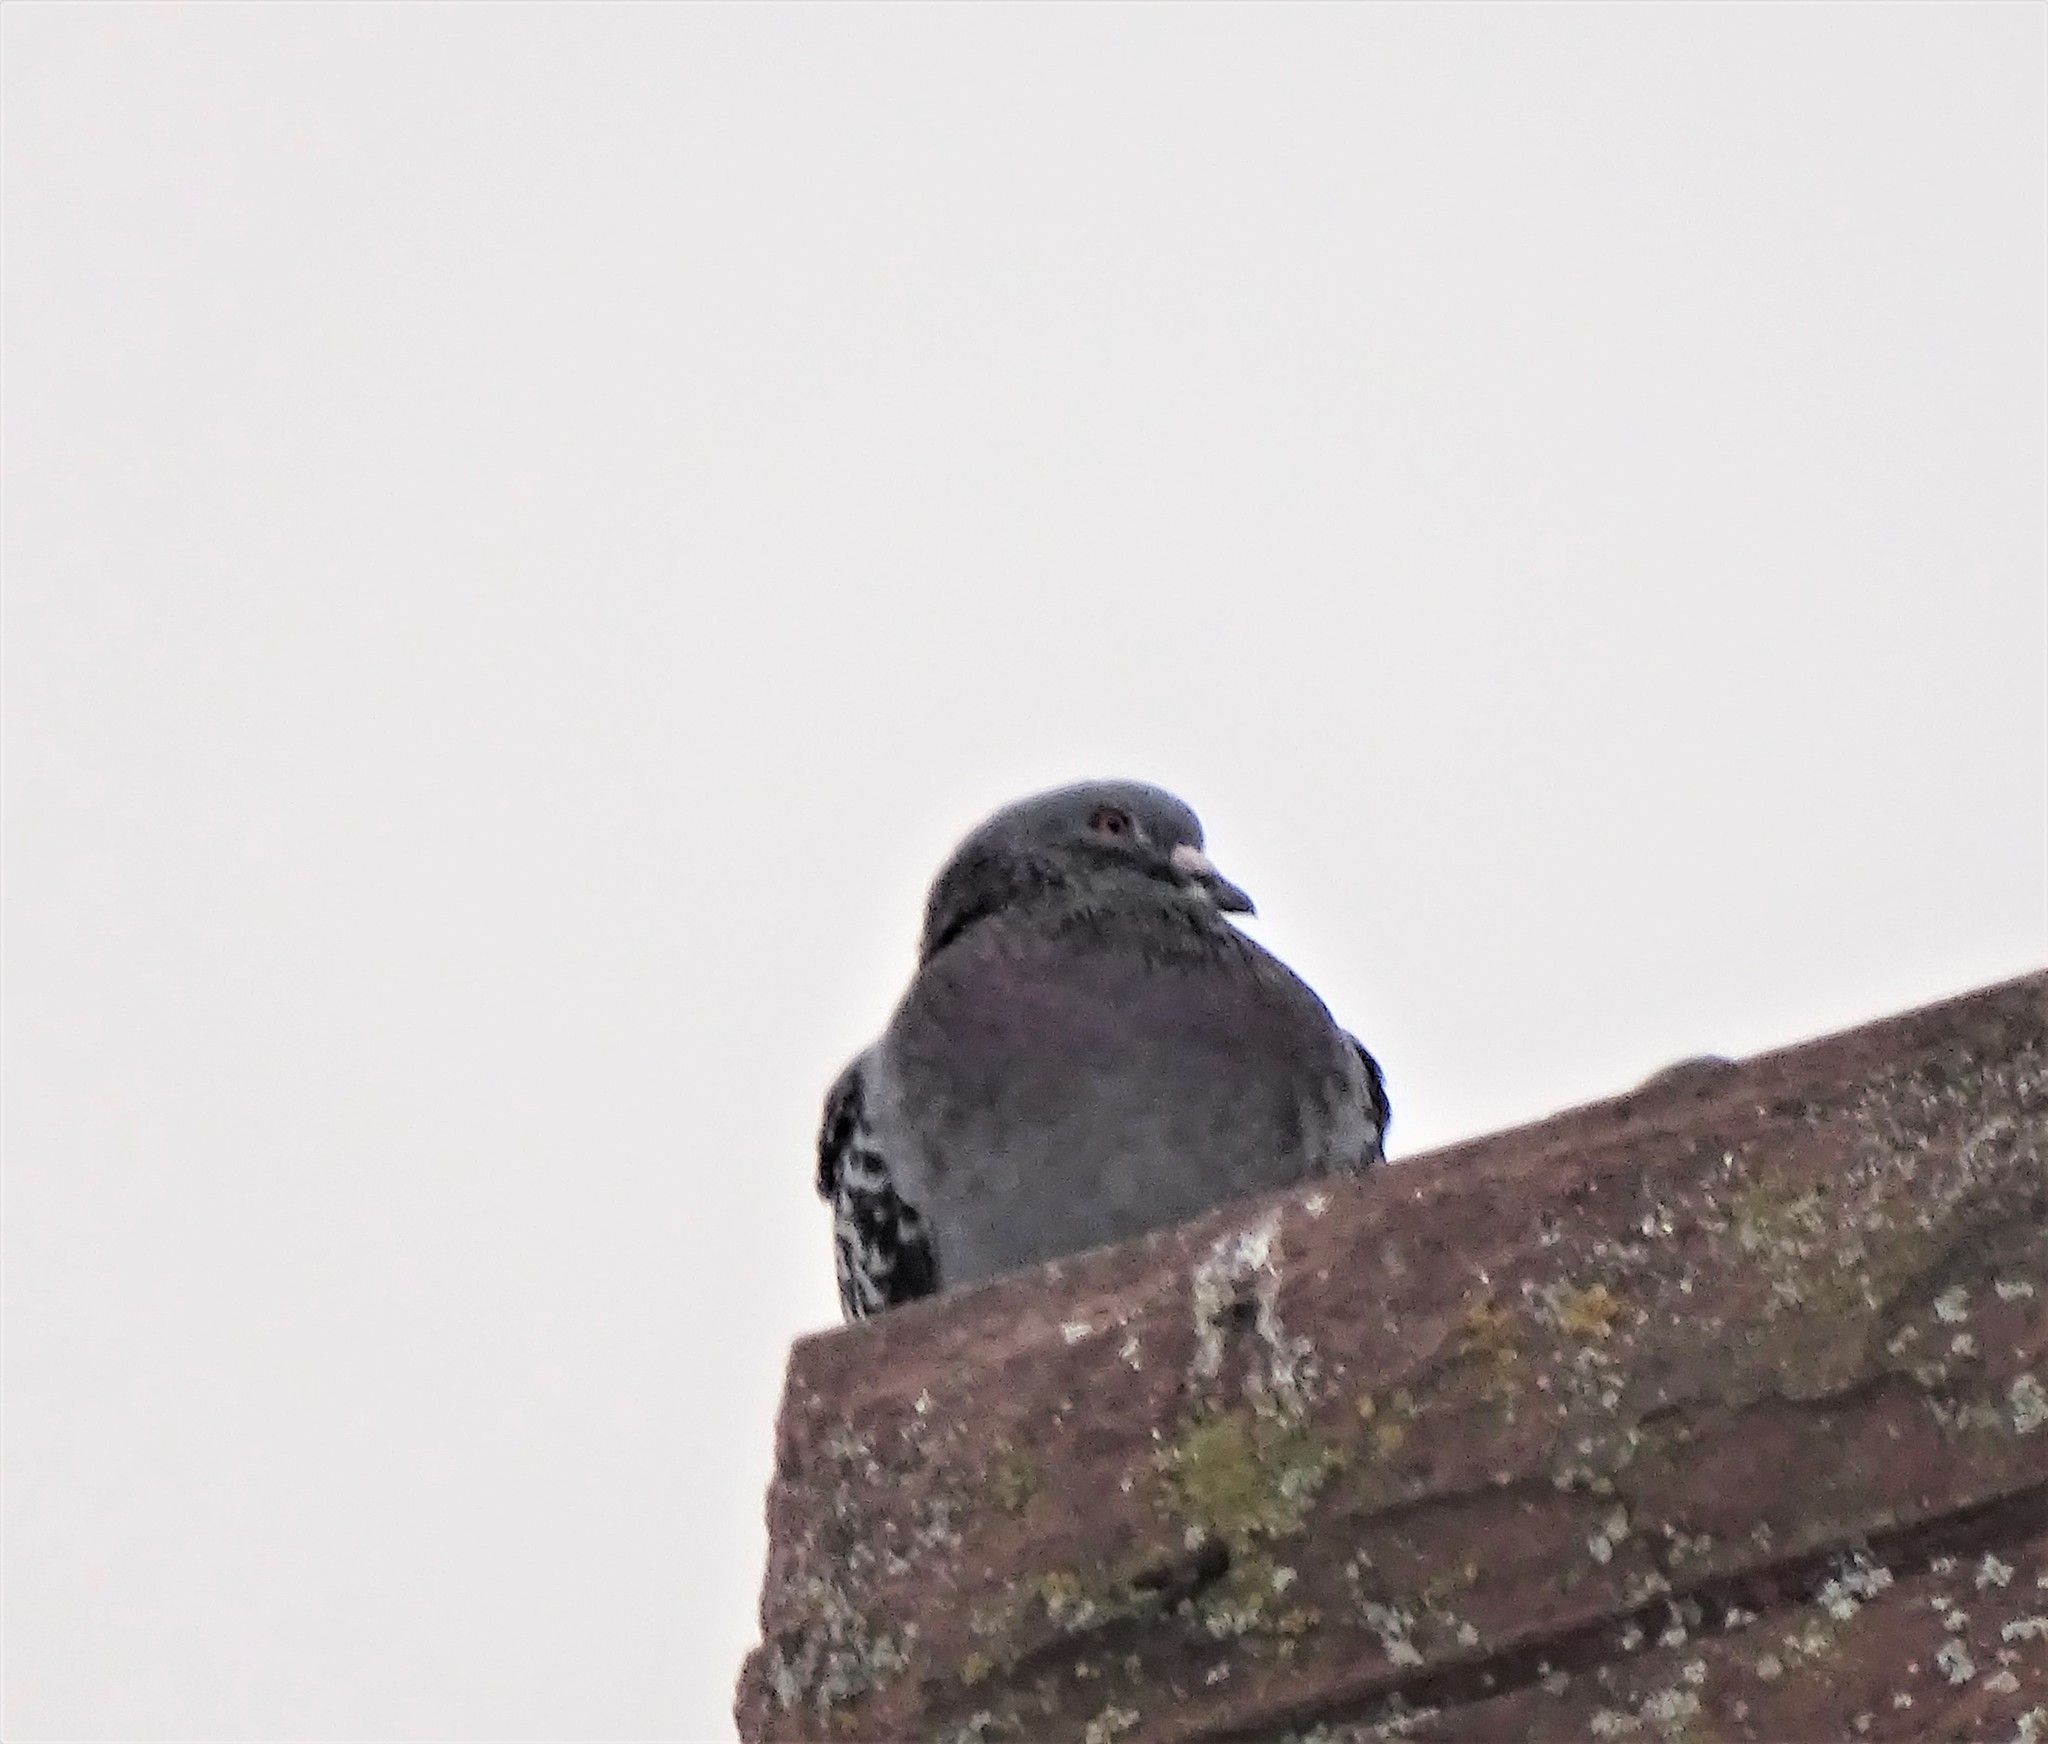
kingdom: Animalia
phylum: Chordata
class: Aves
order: Columbiformes
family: Columbidae
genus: Columba
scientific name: Columba livia
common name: Rock pigeon
